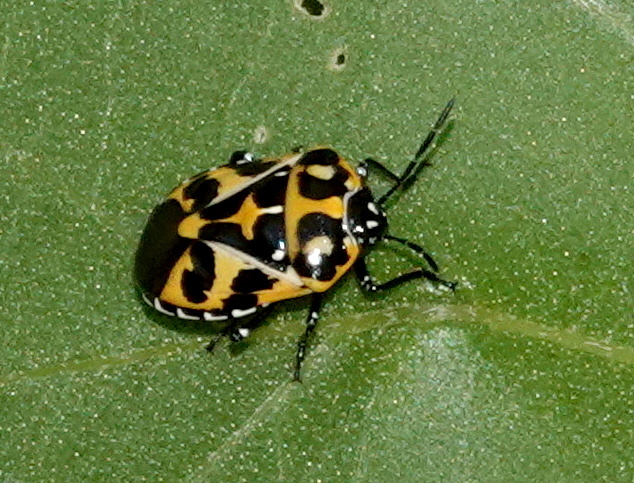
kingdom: Animalia
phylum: Arthropoda
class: Insecta
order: Hemiptera
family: Pentatomidae
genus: Murgantia
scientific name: Murgantia histrionica
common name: Harlequin bug
